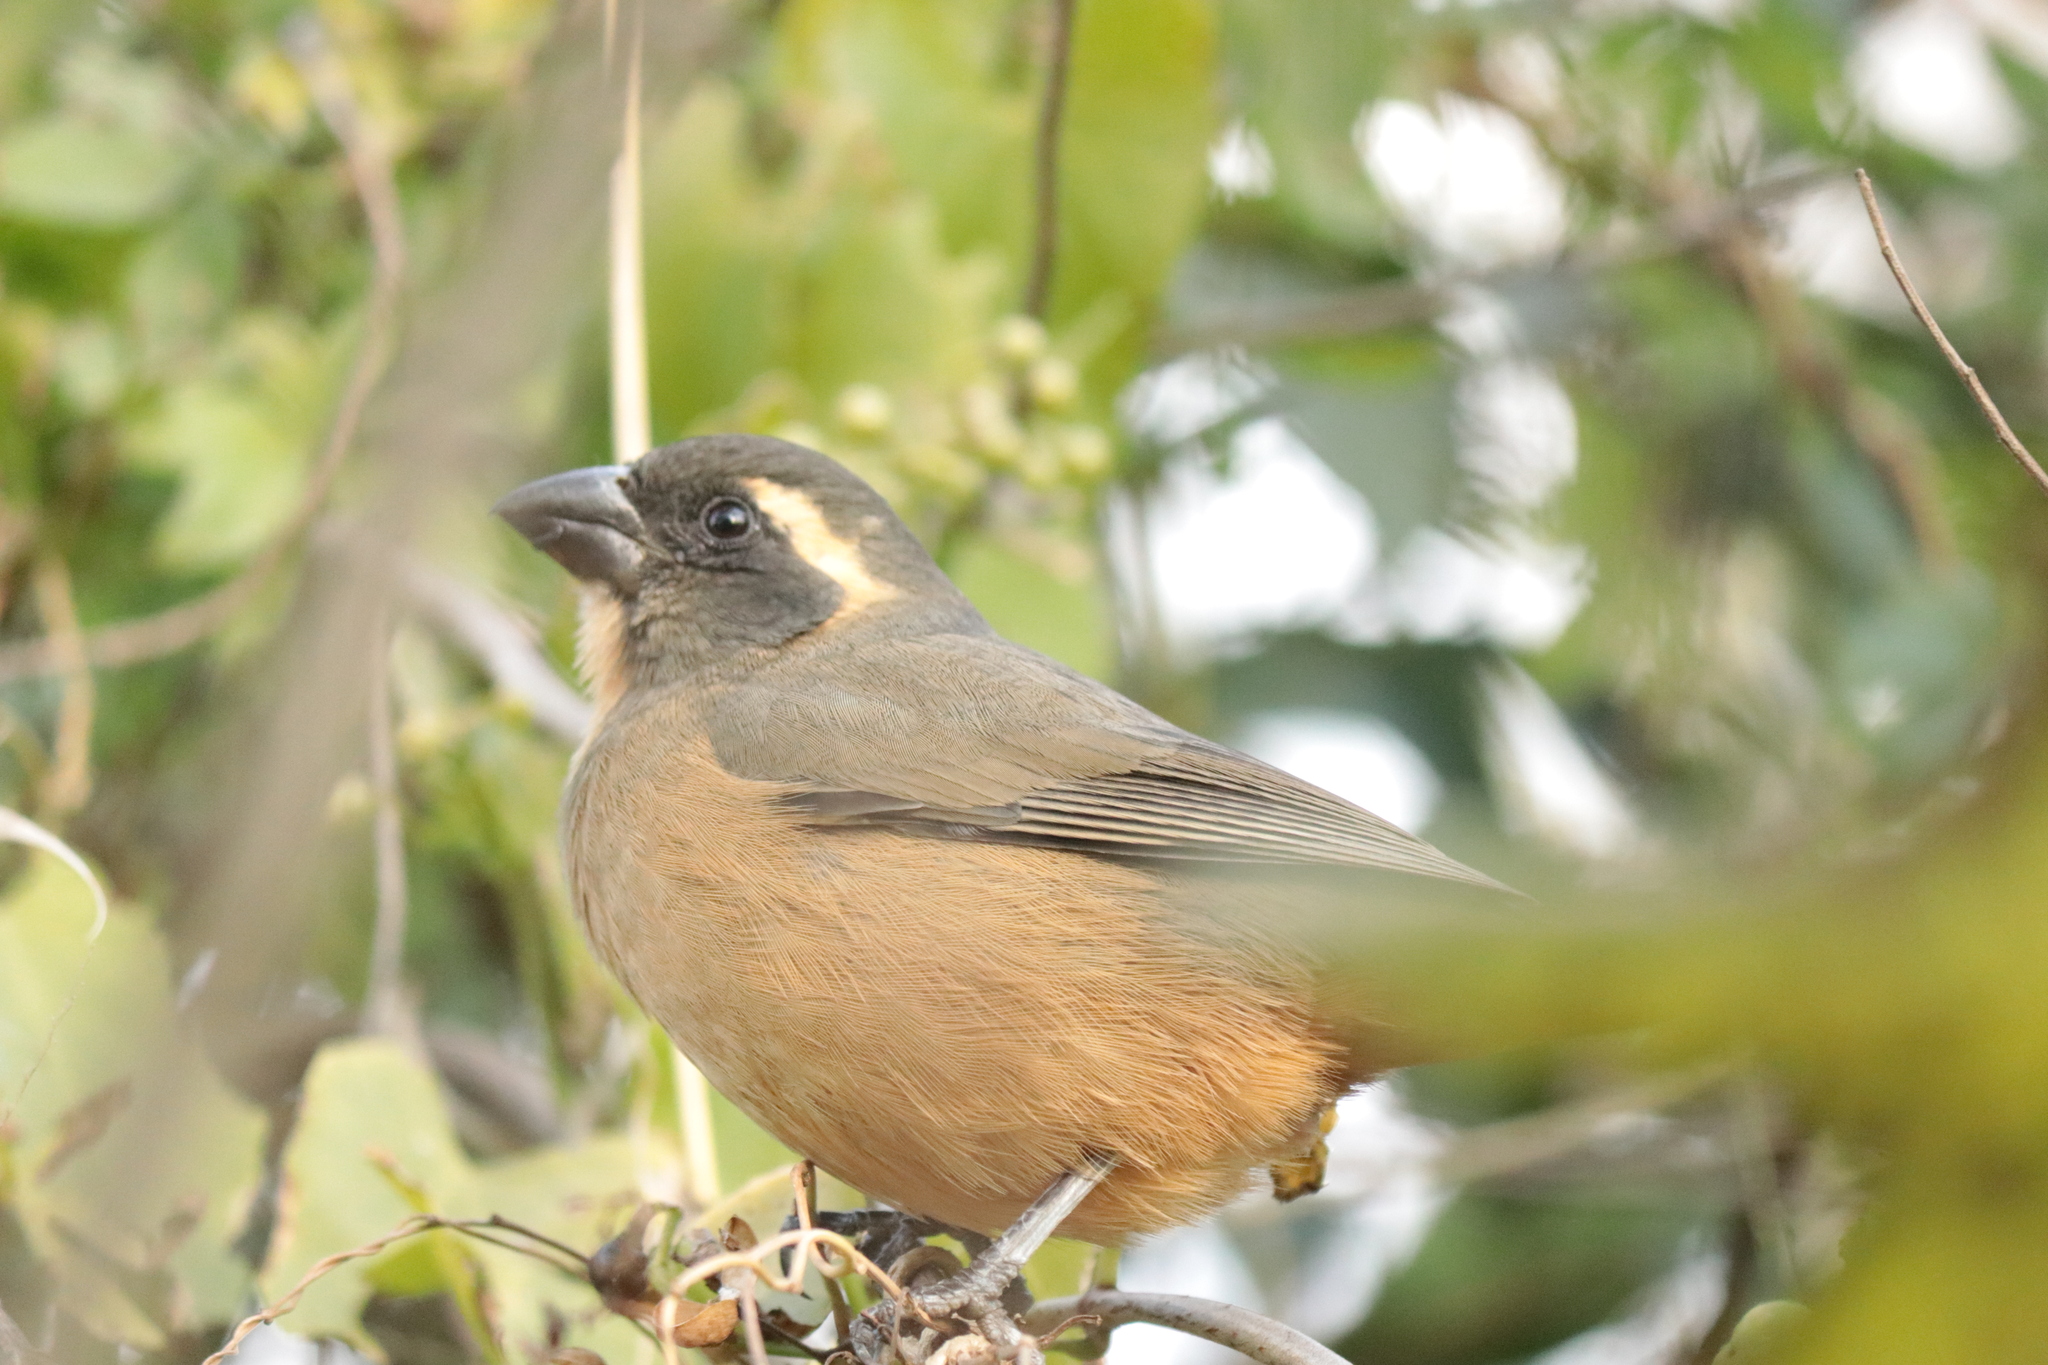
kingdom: Animalia
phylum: Chordata
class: Aves
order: Passeriformes
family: Thraupidae
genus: Saltator
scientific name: Saltator aurantiirostris
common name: Golden-billed saltator
